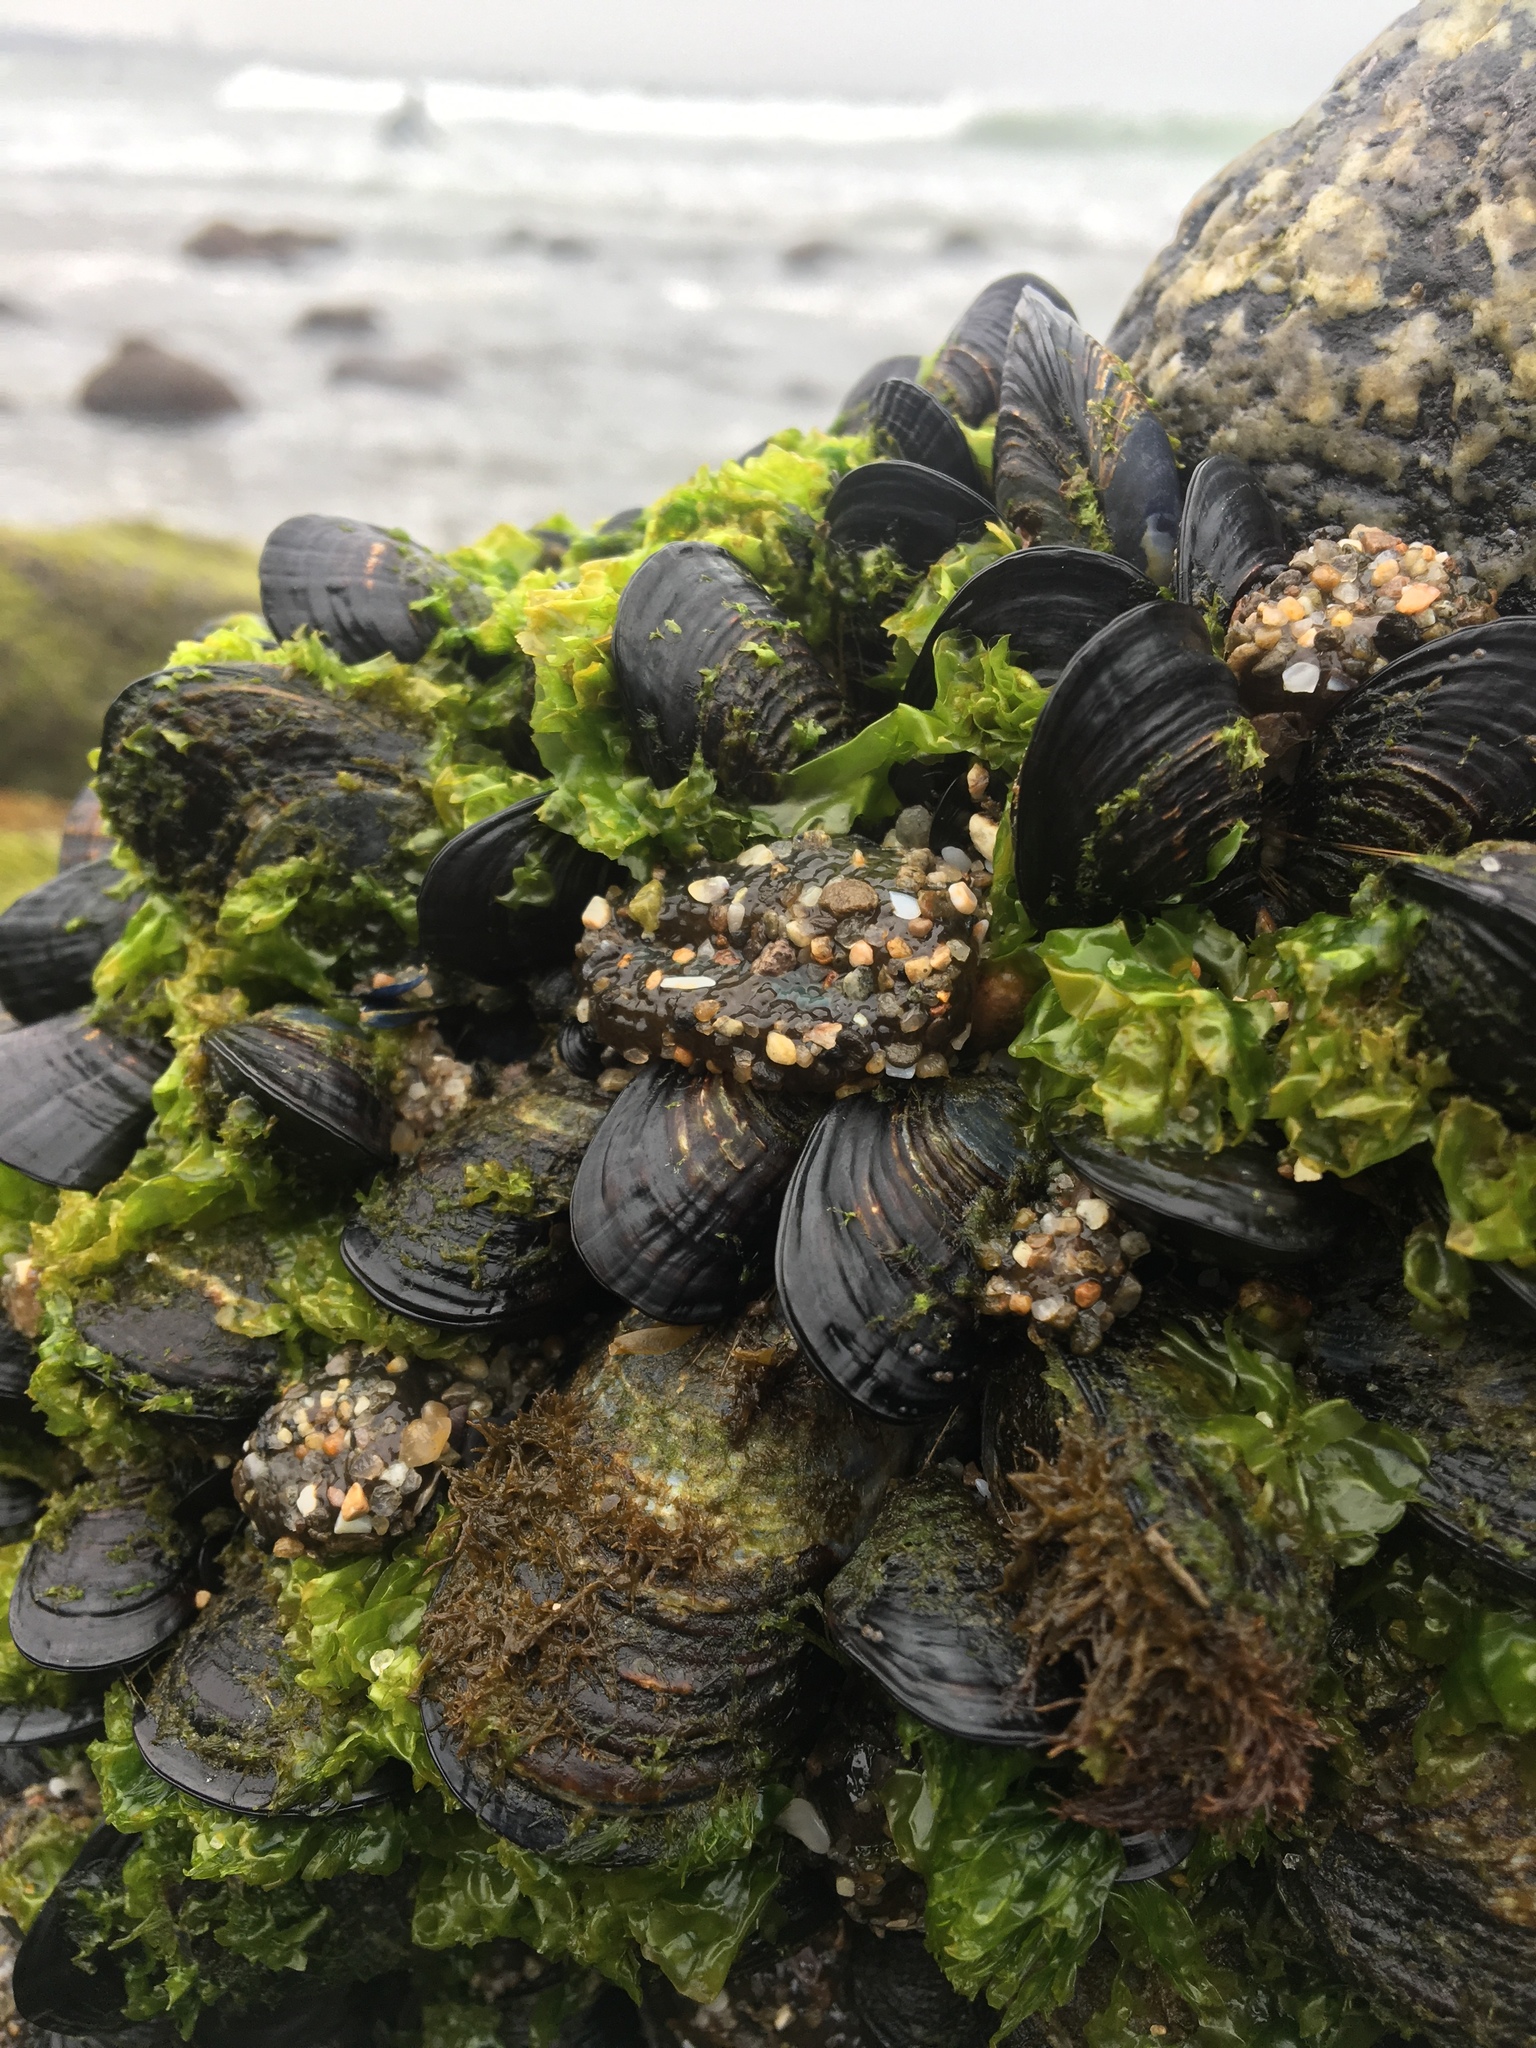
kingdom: Animalia
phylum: Mollusca
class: Bivalvia
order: Mytilida
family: Mytilidae
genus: Mytilus
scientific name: Mytilus californianus
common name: California mussel
